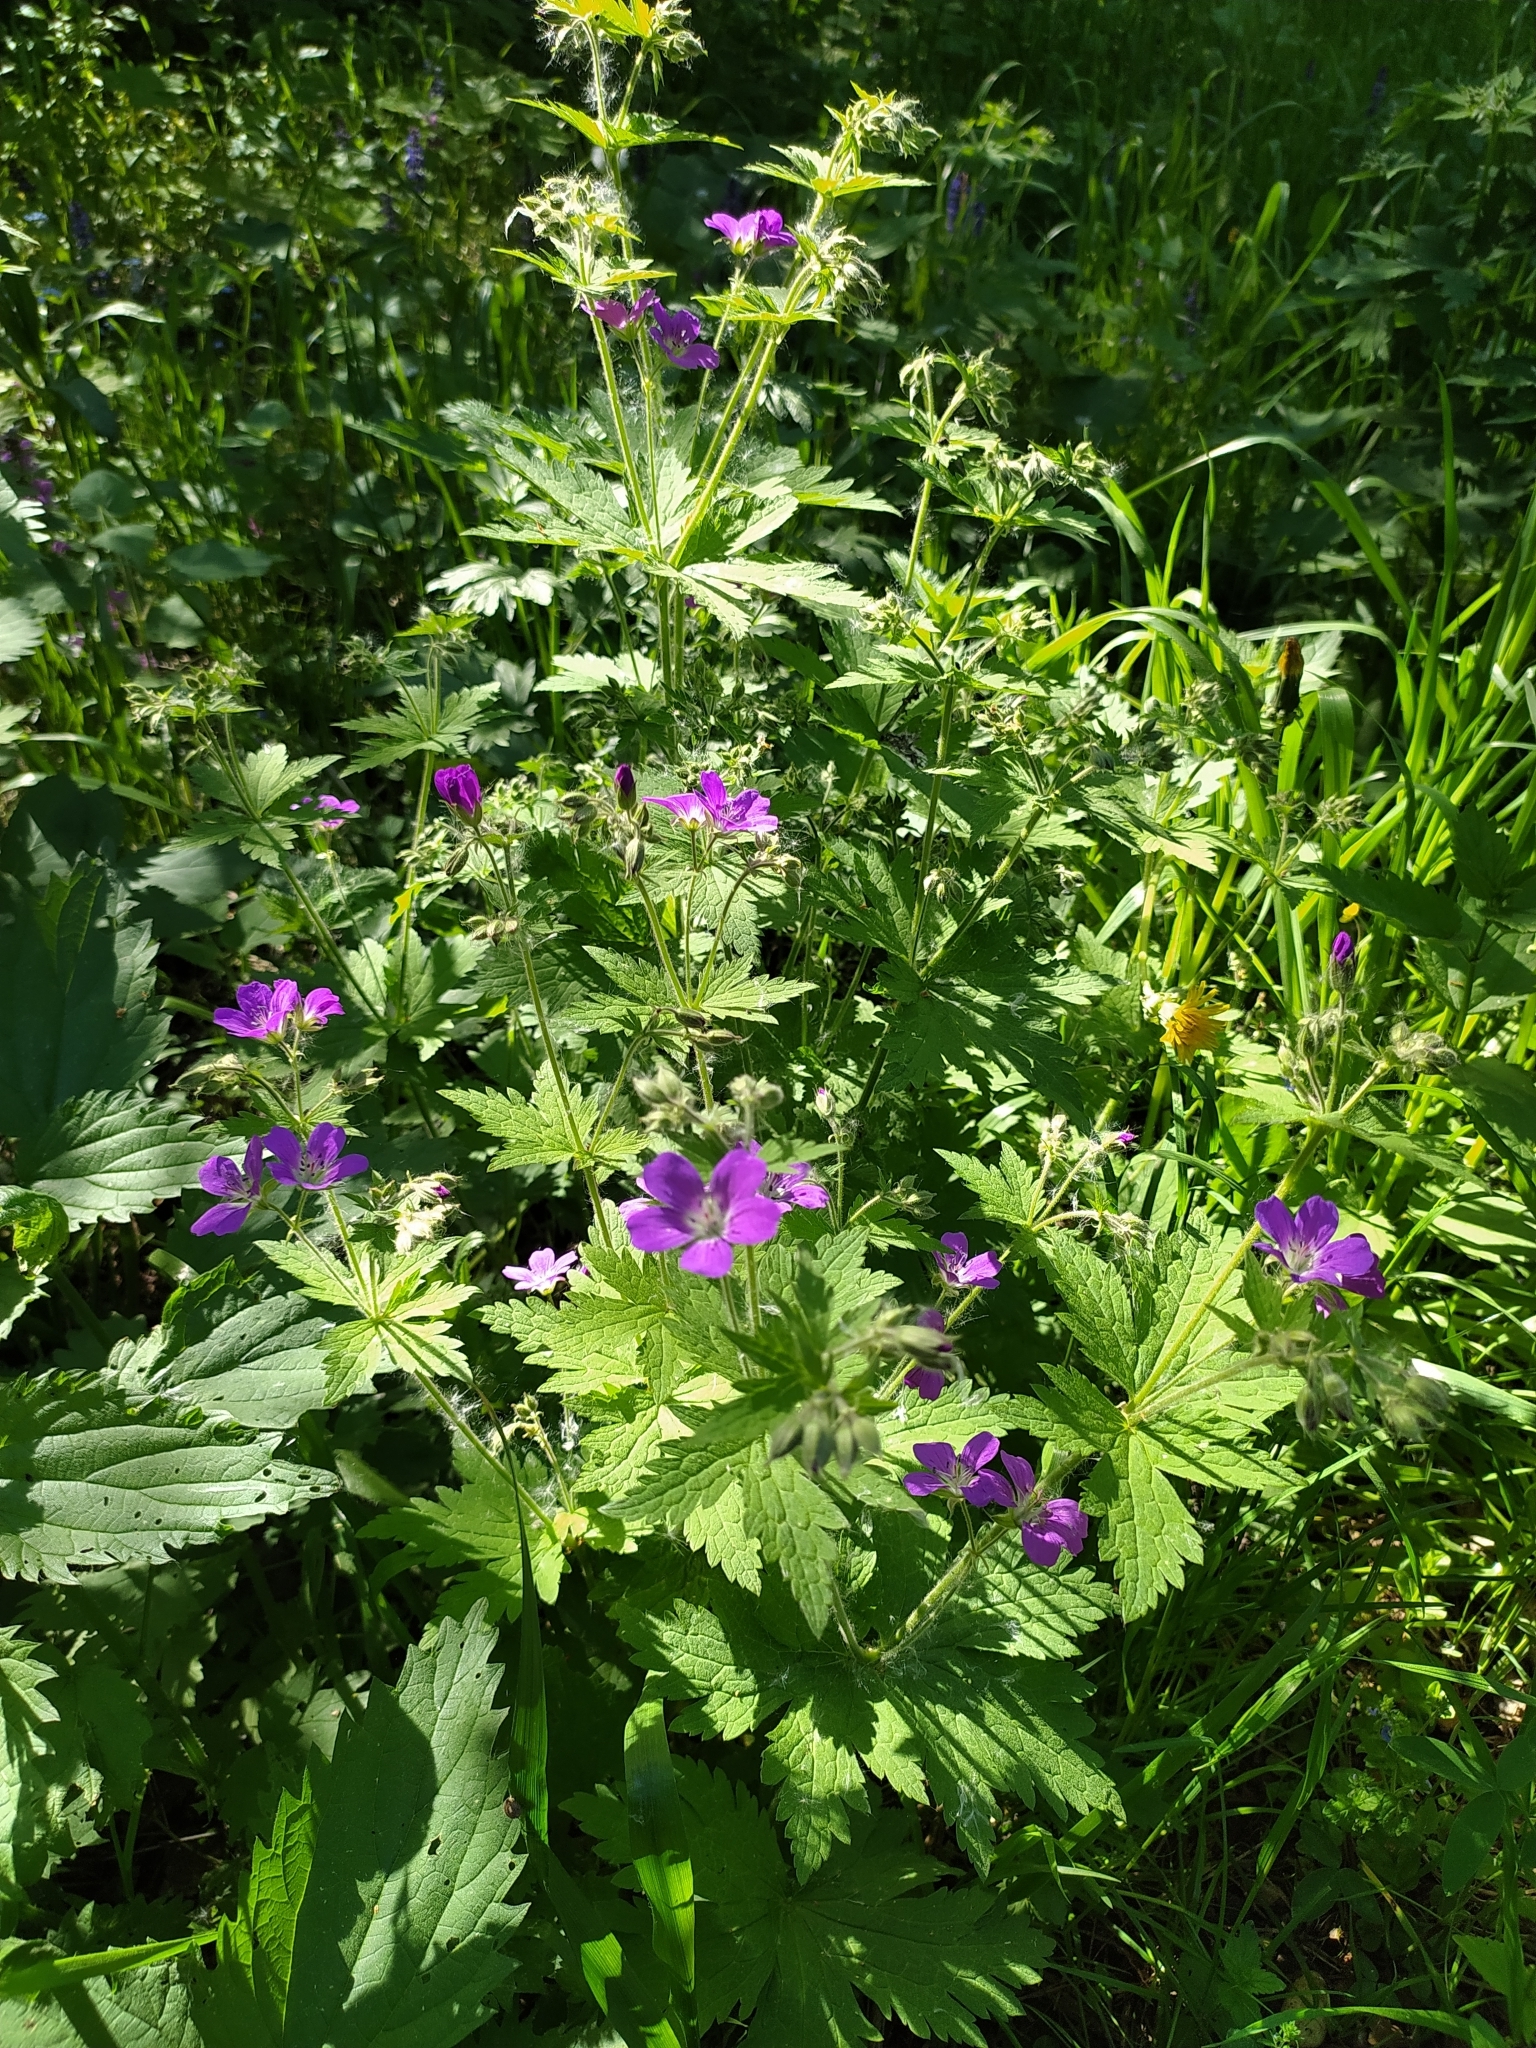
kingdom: Plantae
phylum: Tracheophyta
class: Magnoliopsida
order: Geraniales
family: Geraniaceae
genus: Geranium
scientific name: Geranium sylvaticum
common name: Wood crane's-bill
